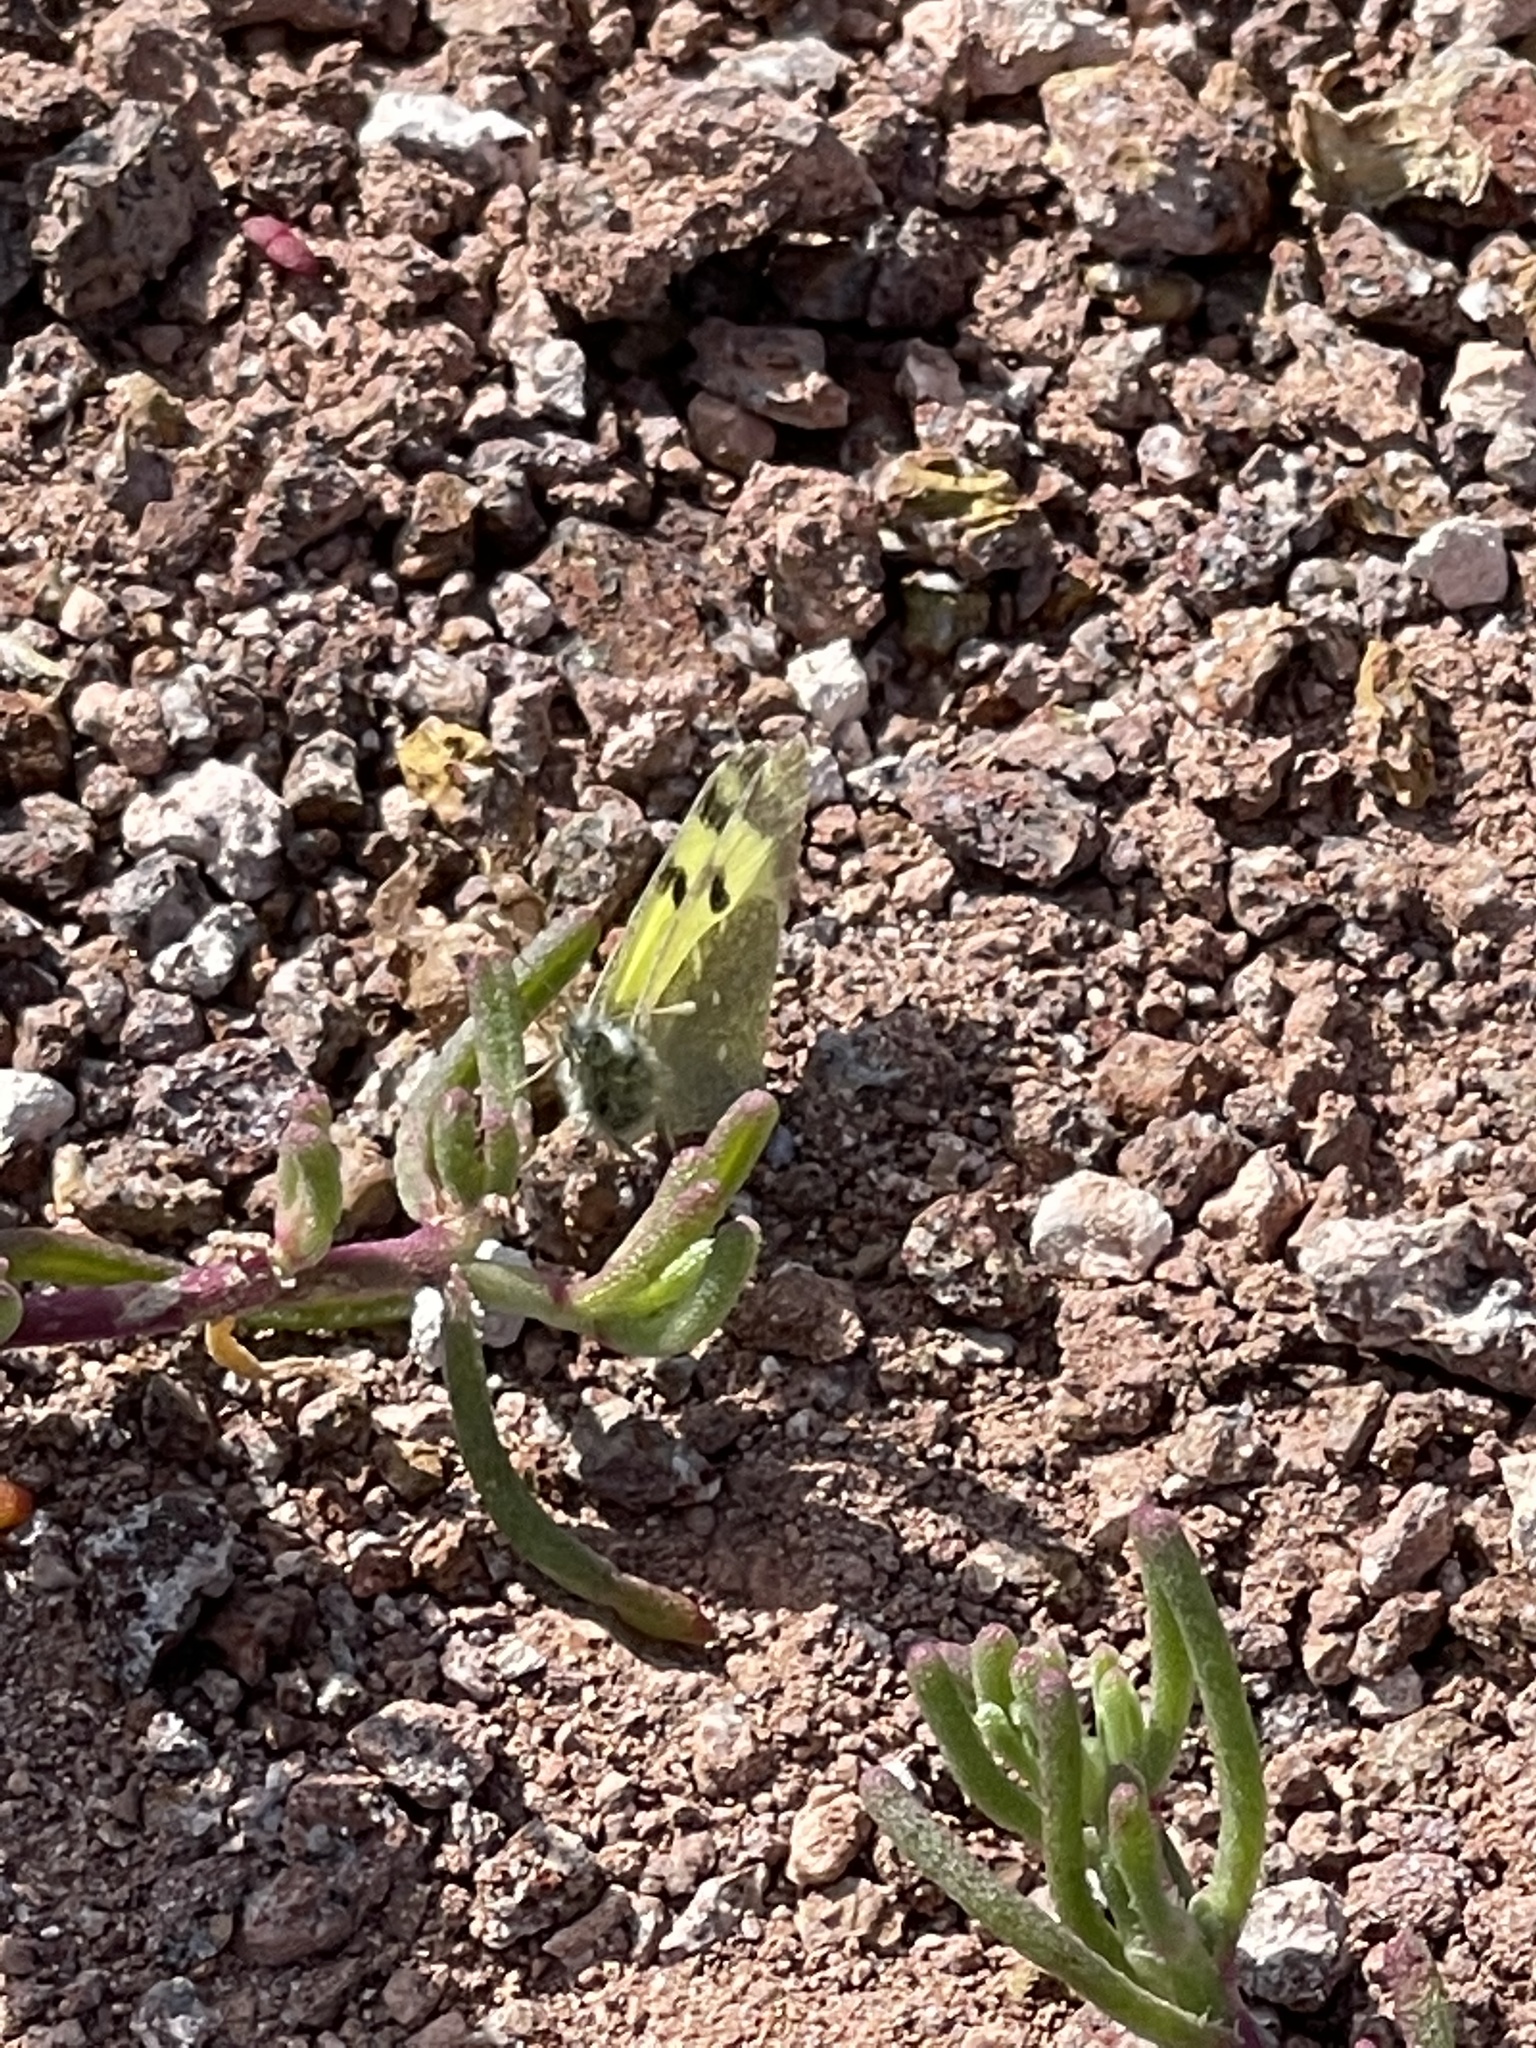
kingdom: Animalia
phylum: Arthropoda
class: Insecta
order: Lepidoptera
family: Pieridae
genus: Elphinstonia
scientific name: Elphinstonia charlonia
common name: Greenish black-tip
